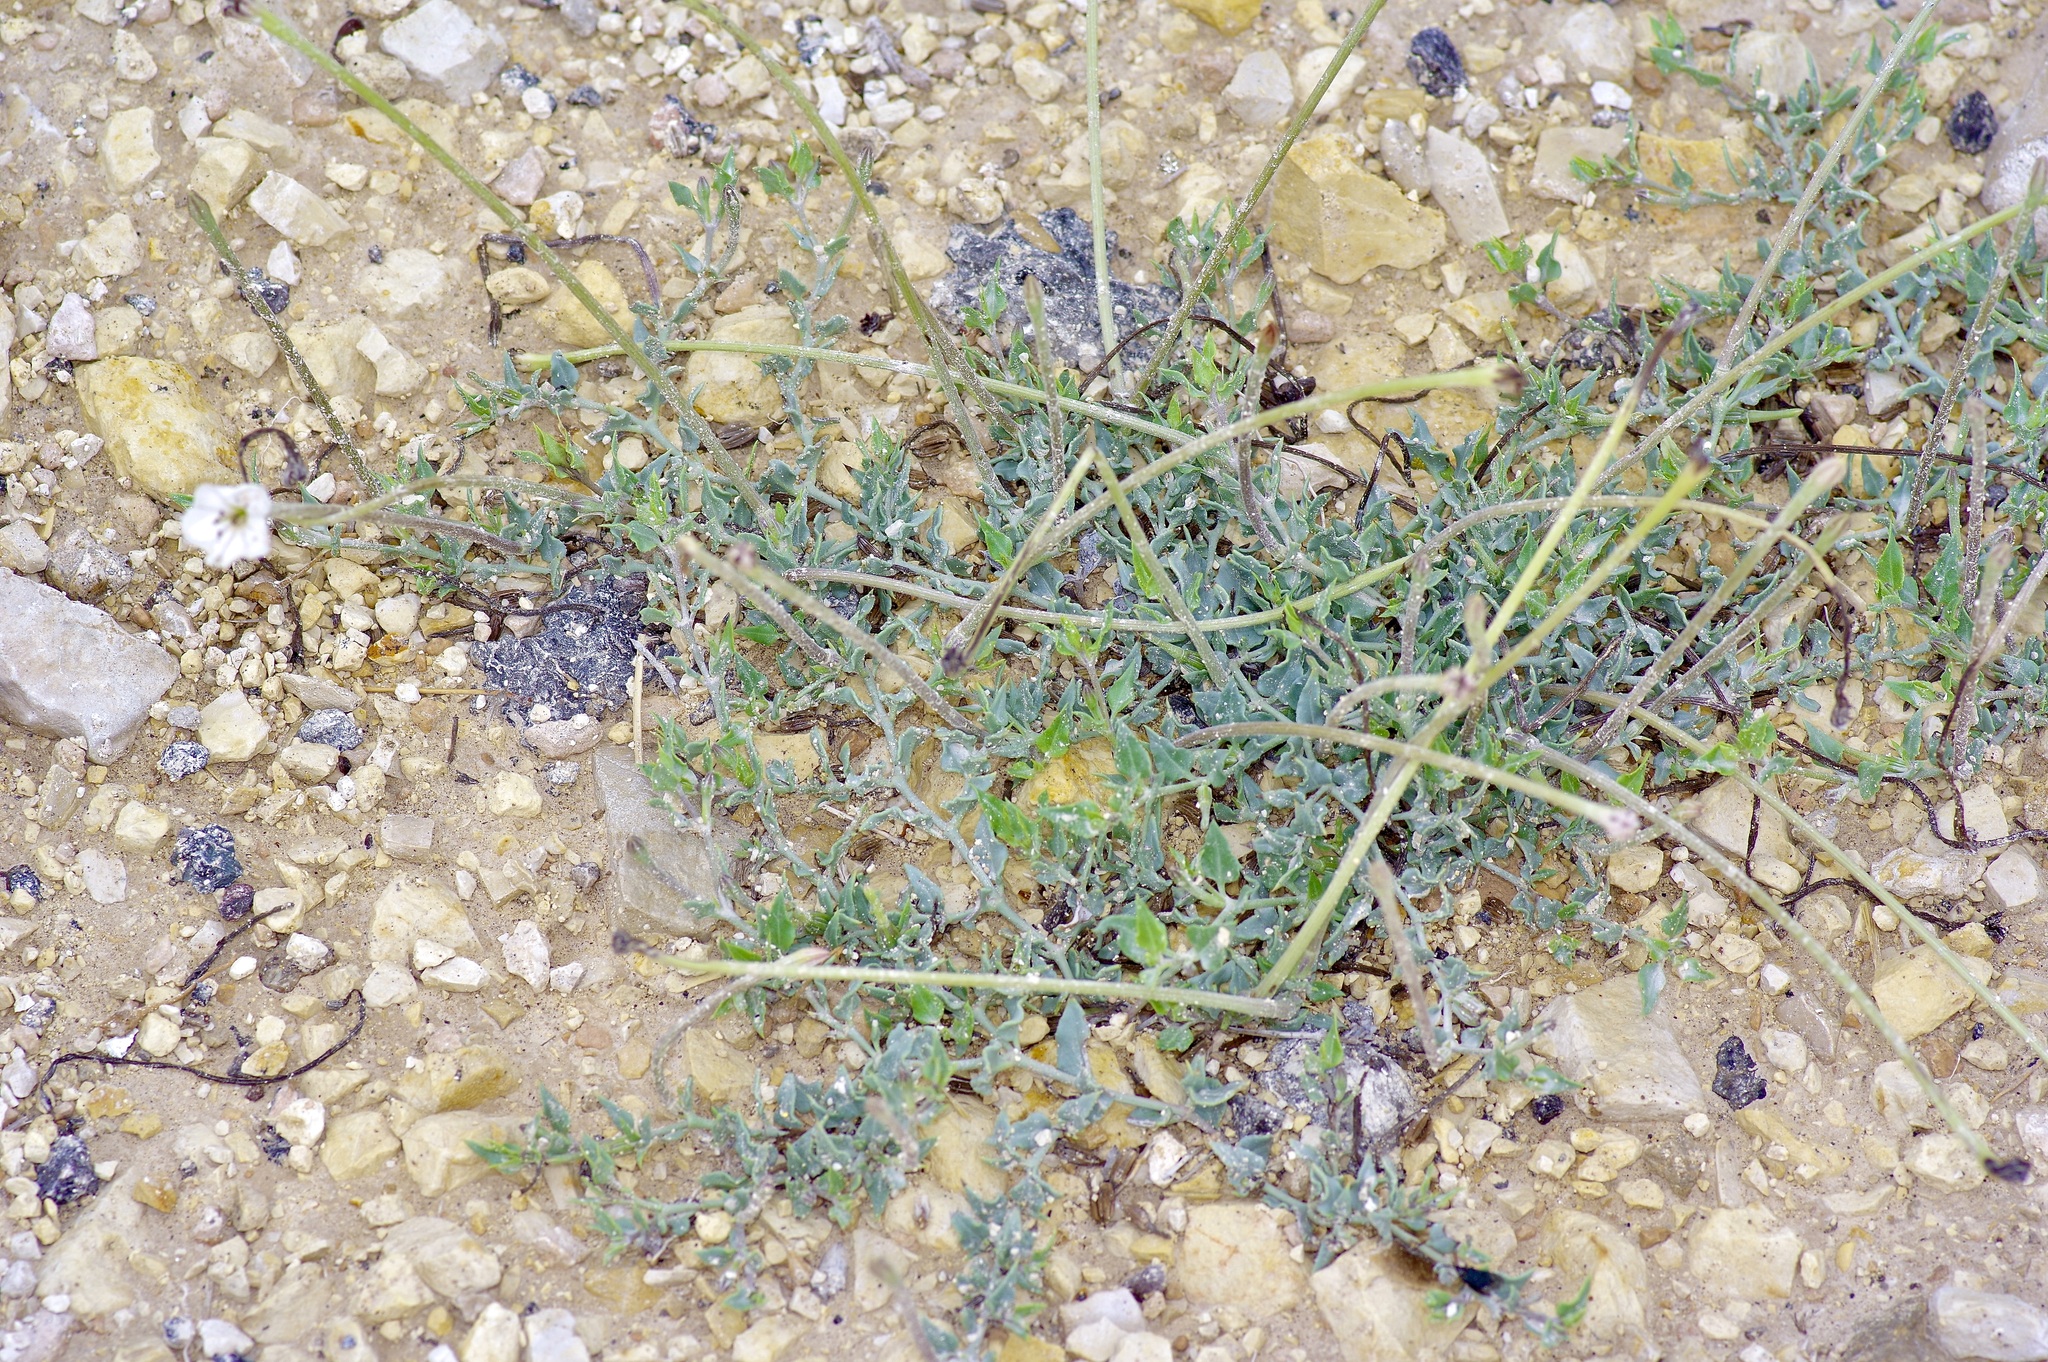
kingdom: Plantae
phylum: Tracheophyta
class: Magnoliopsida
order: Caryophyllales
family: Nyctaginaceae
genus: Acleisanthes
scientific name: Acleisanthes longiflora
